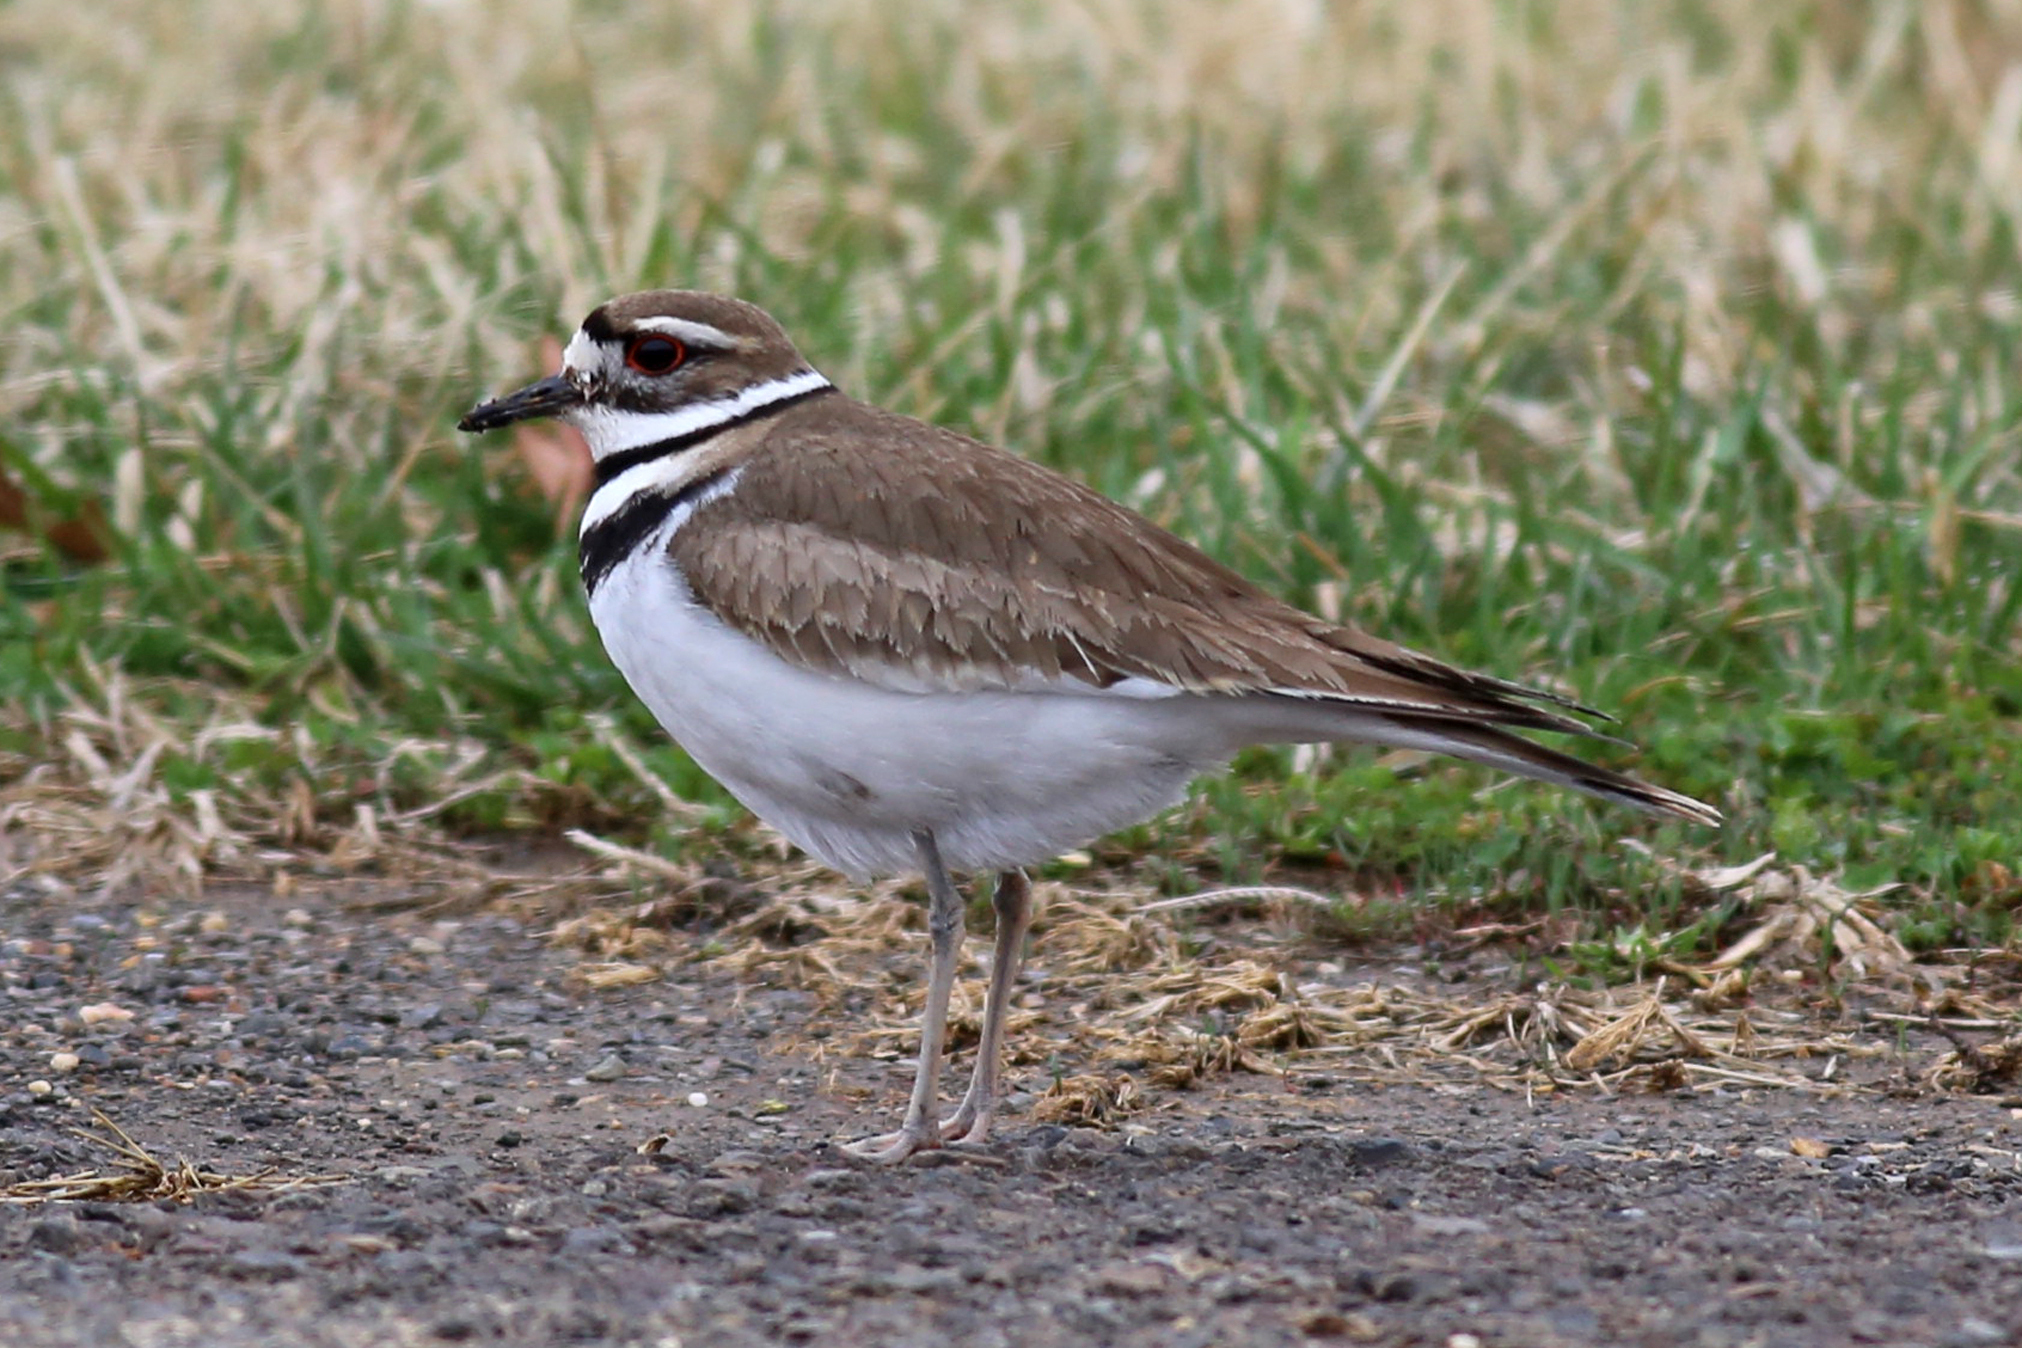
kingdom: Animalia
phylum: Chordata
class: Aves
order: Charadriiformes
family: Charadriidae
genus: Charadrius
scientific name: Charadrius vociferus
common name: Killdeer
